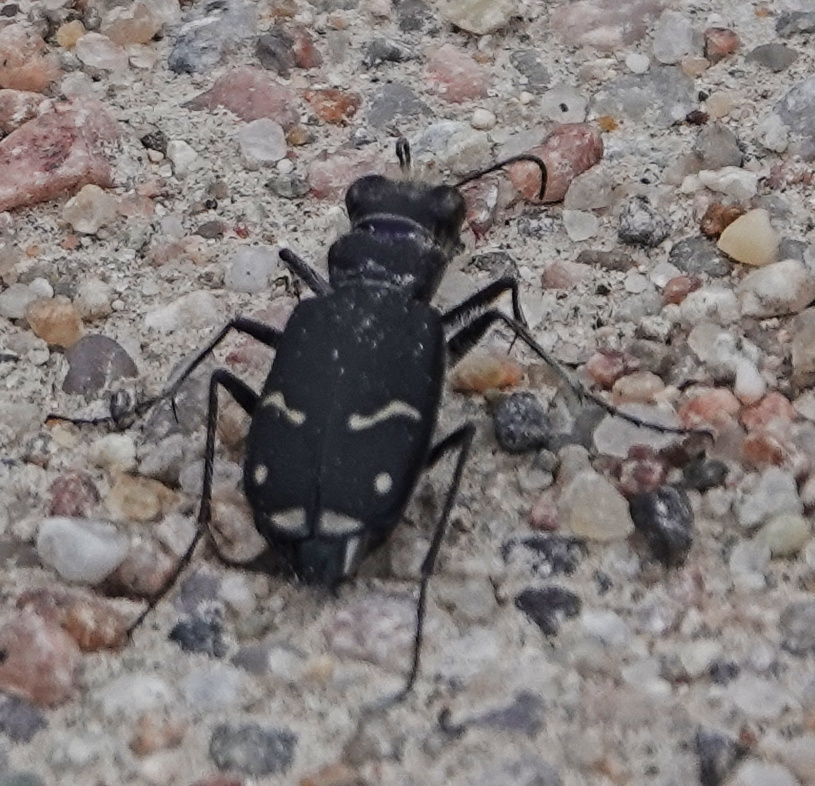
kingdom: Animalia
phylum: Arthropoda
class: Insecta
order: Coleoptera
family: Carabidae
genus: Cicindela
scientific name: Cicindela purpurea
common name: Cow path tiger beetle
